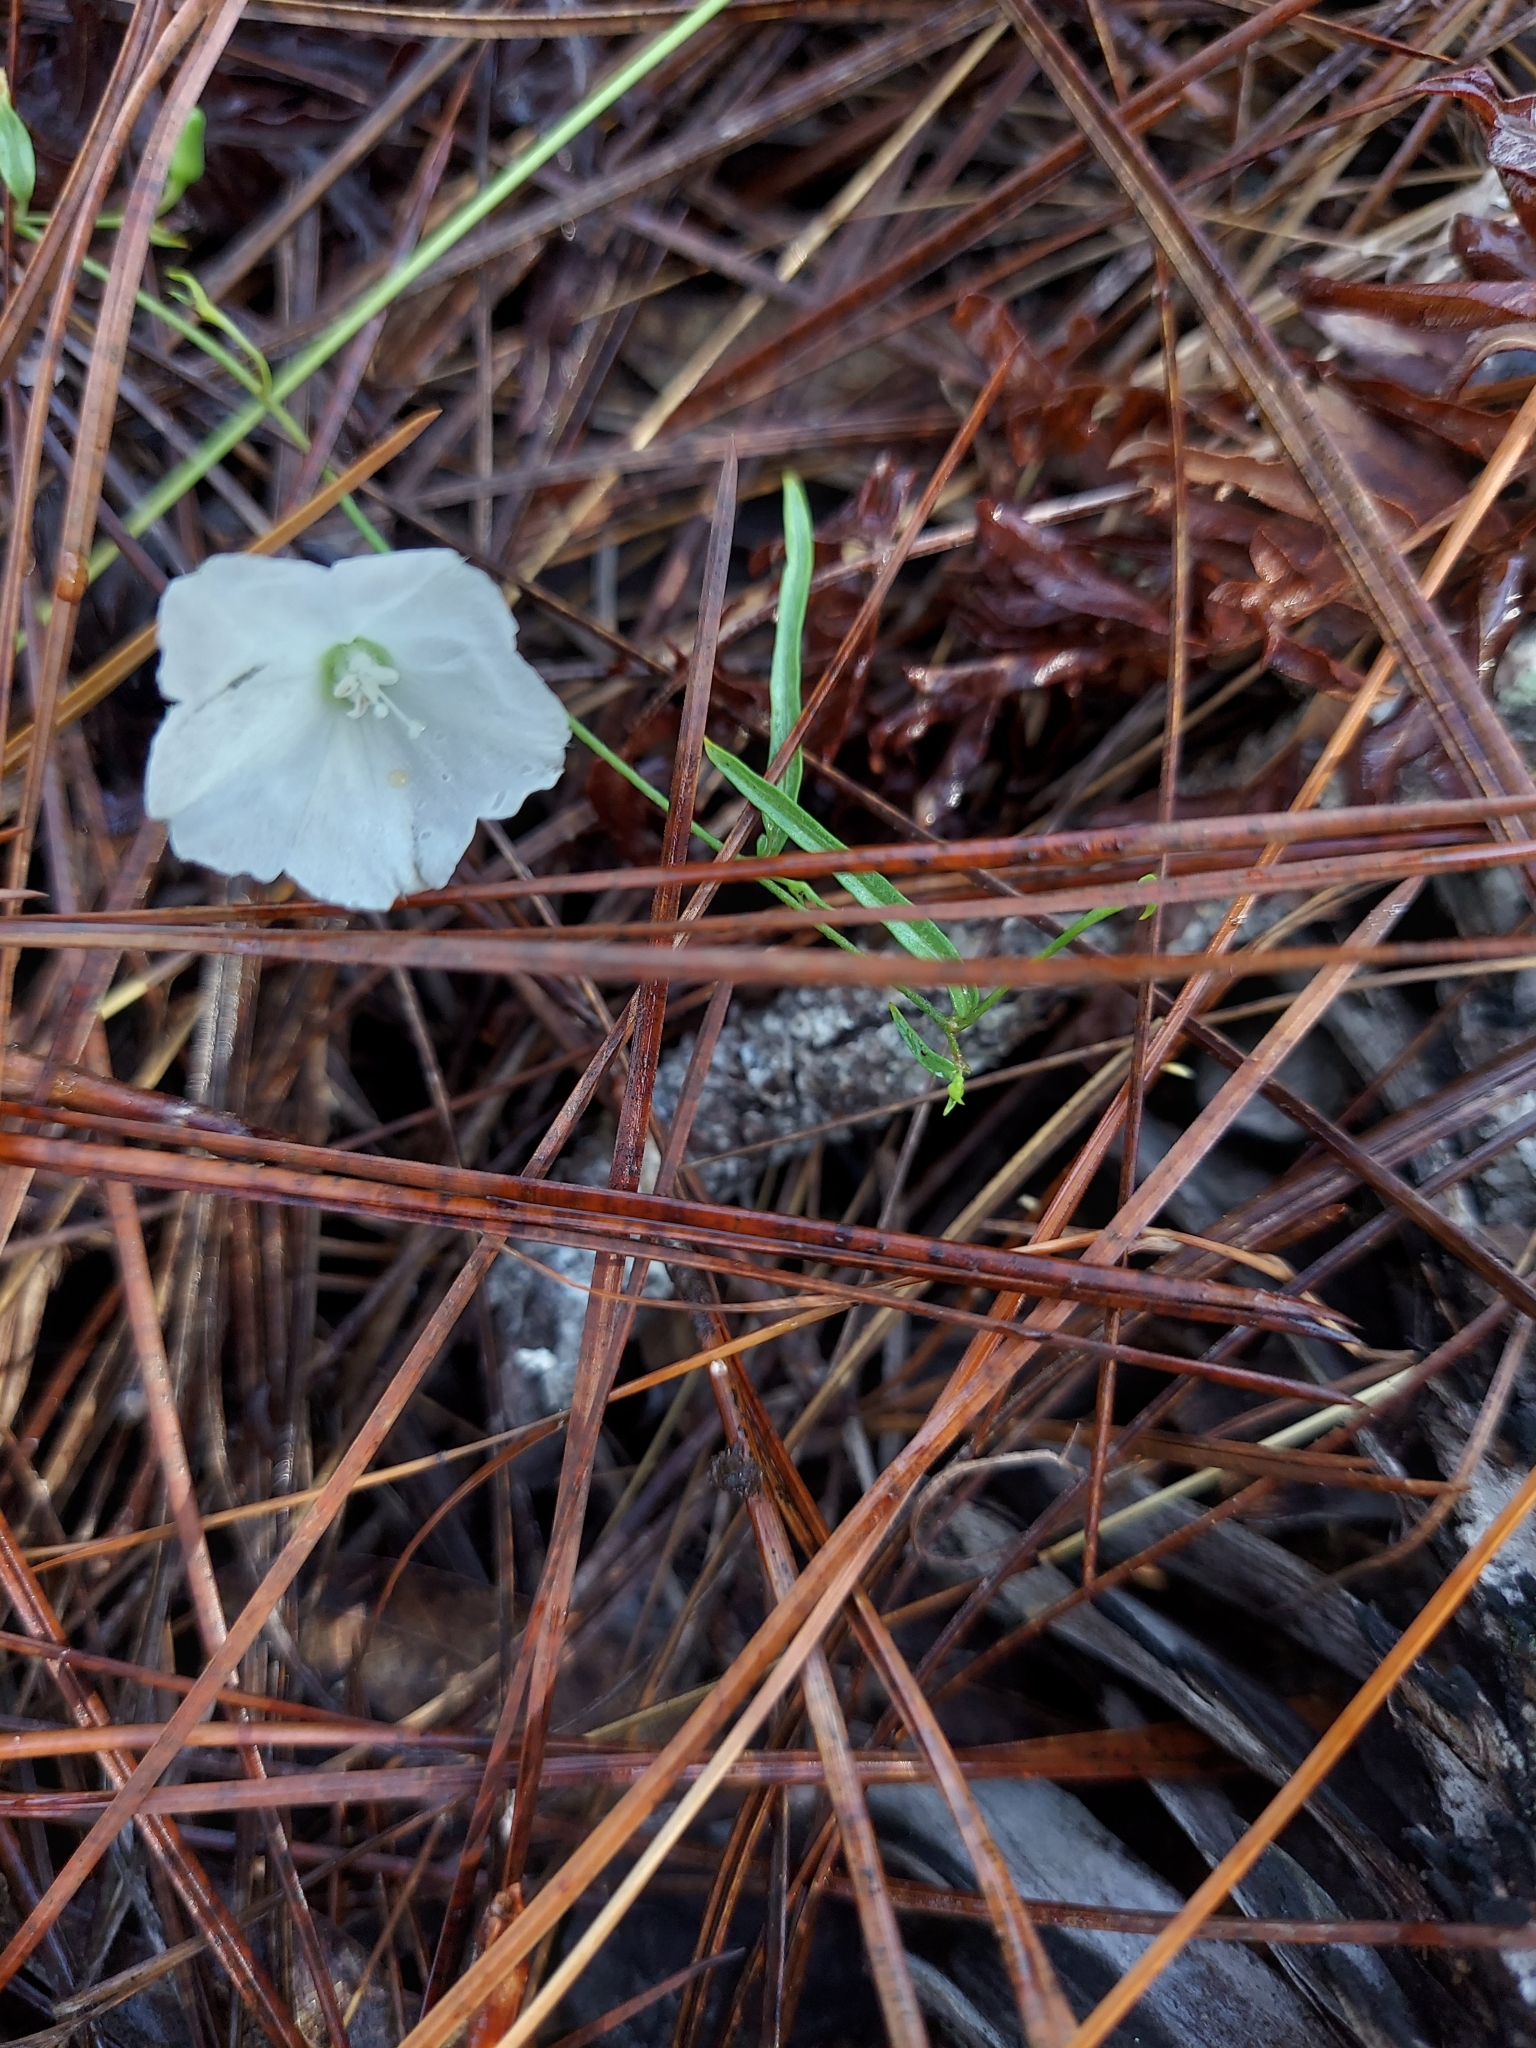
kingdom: Plantae
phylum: Tracheophyta
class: Magnoliopsida
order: Solanales
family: Convolvulaceae
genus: Stylisma
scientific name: Stylisma patens
